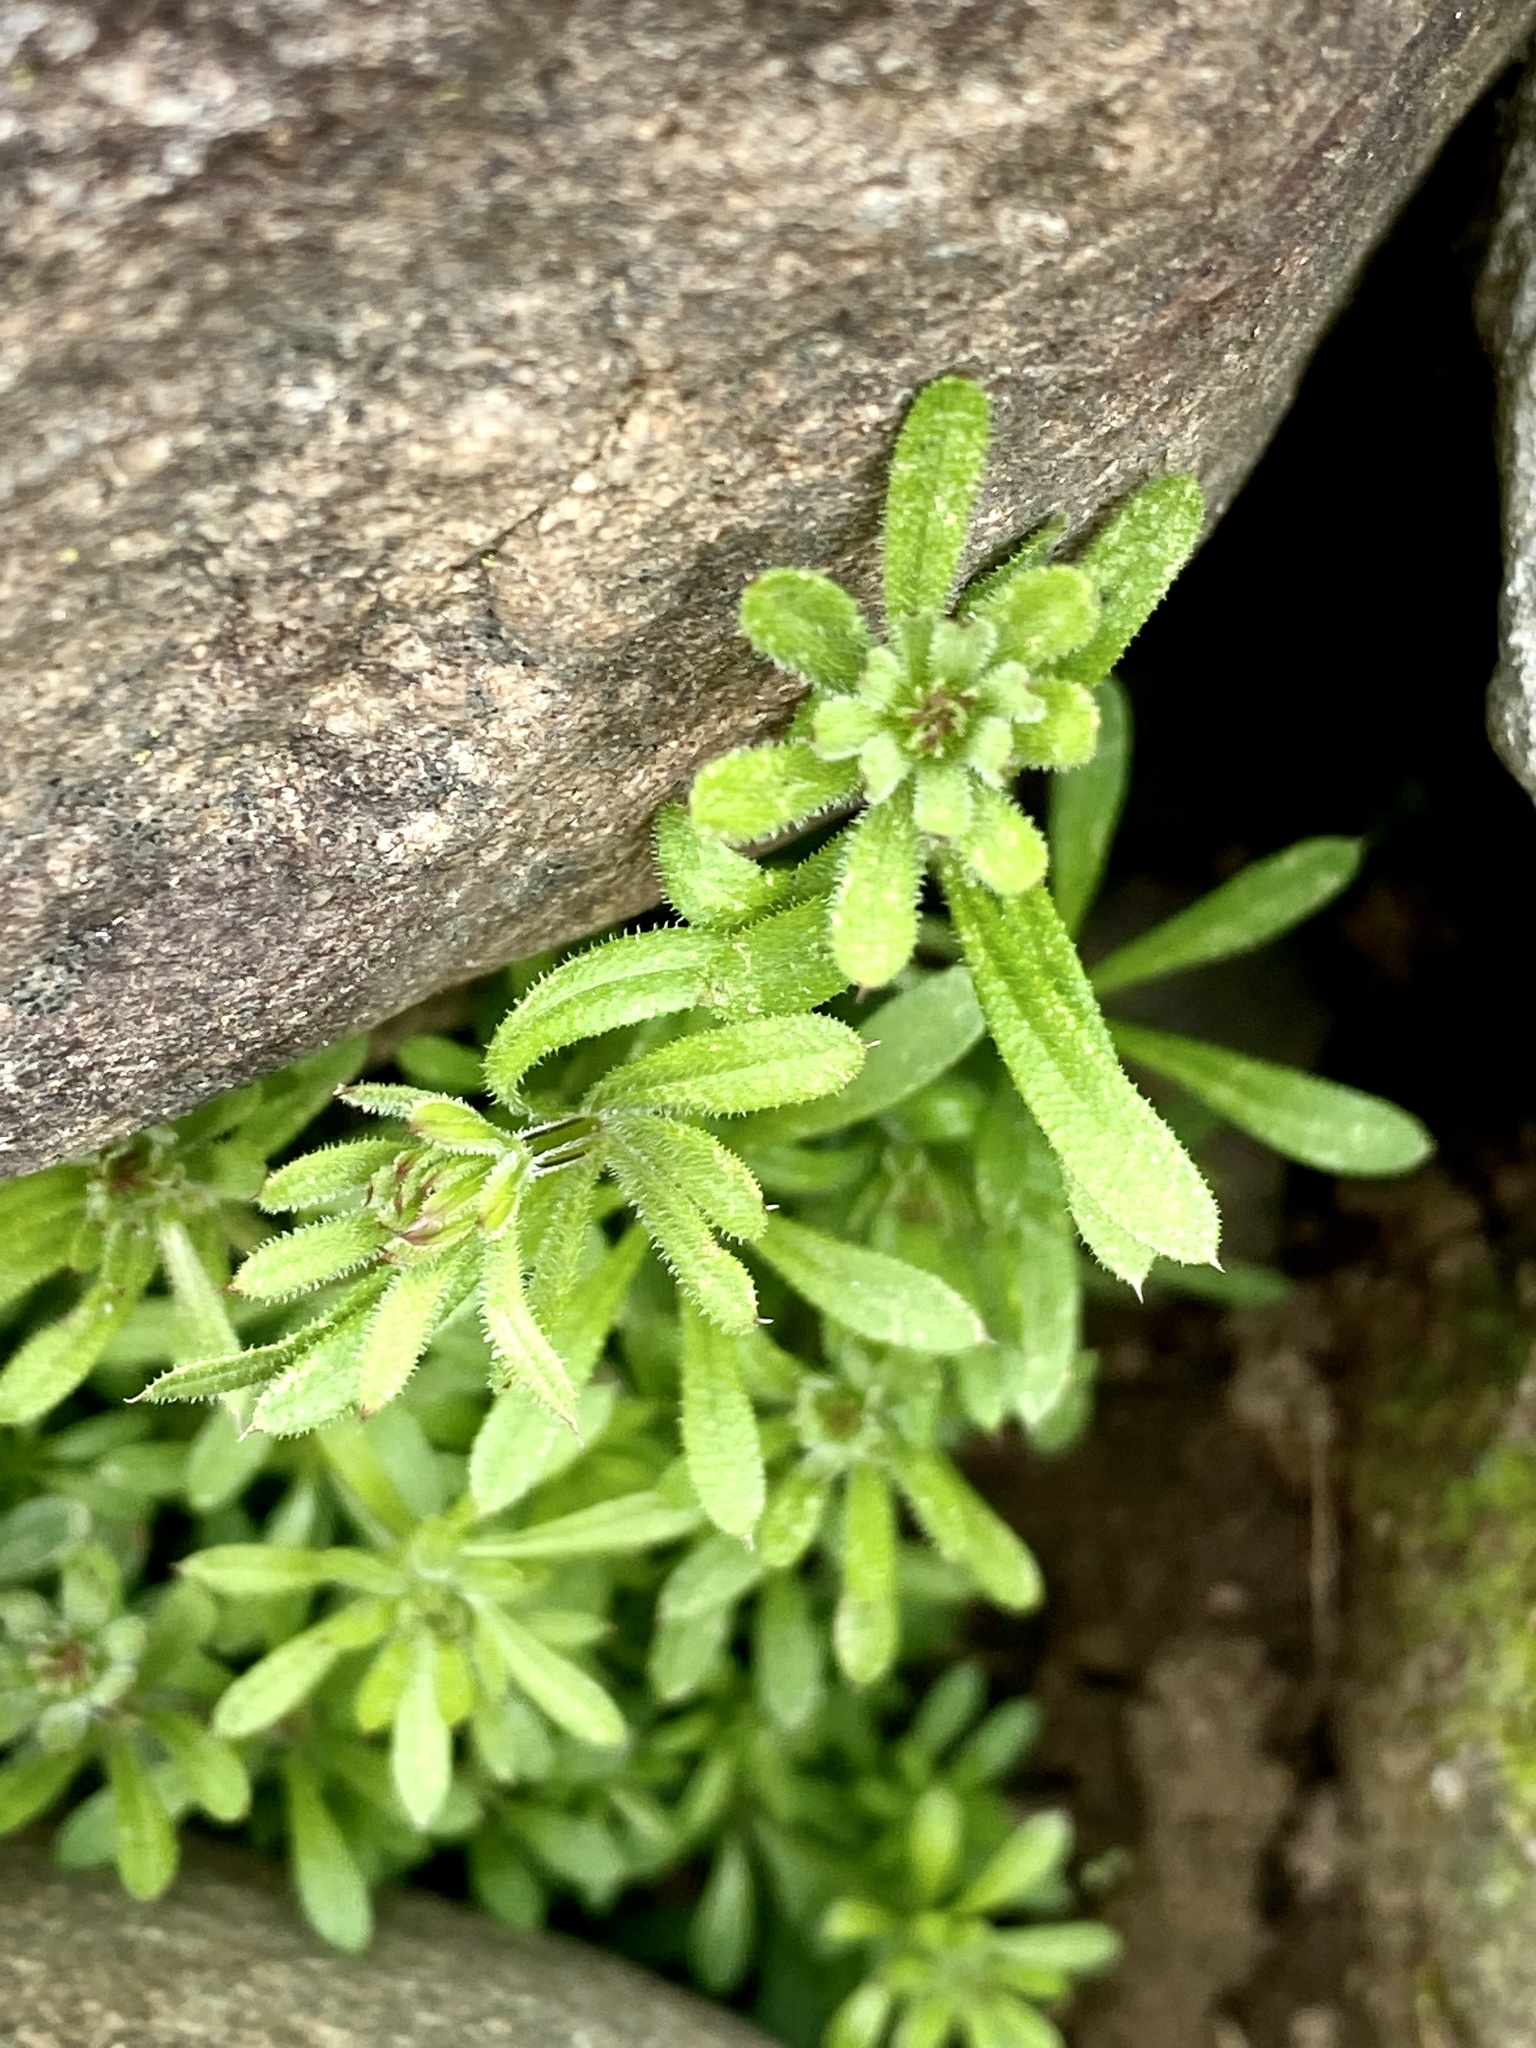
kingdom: Plantae
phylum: Tracheophyta
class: Magnoliopsida
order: Gentianales
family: Rubiaceae
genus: Galium
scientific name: Galium aparine
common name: Cleavers
